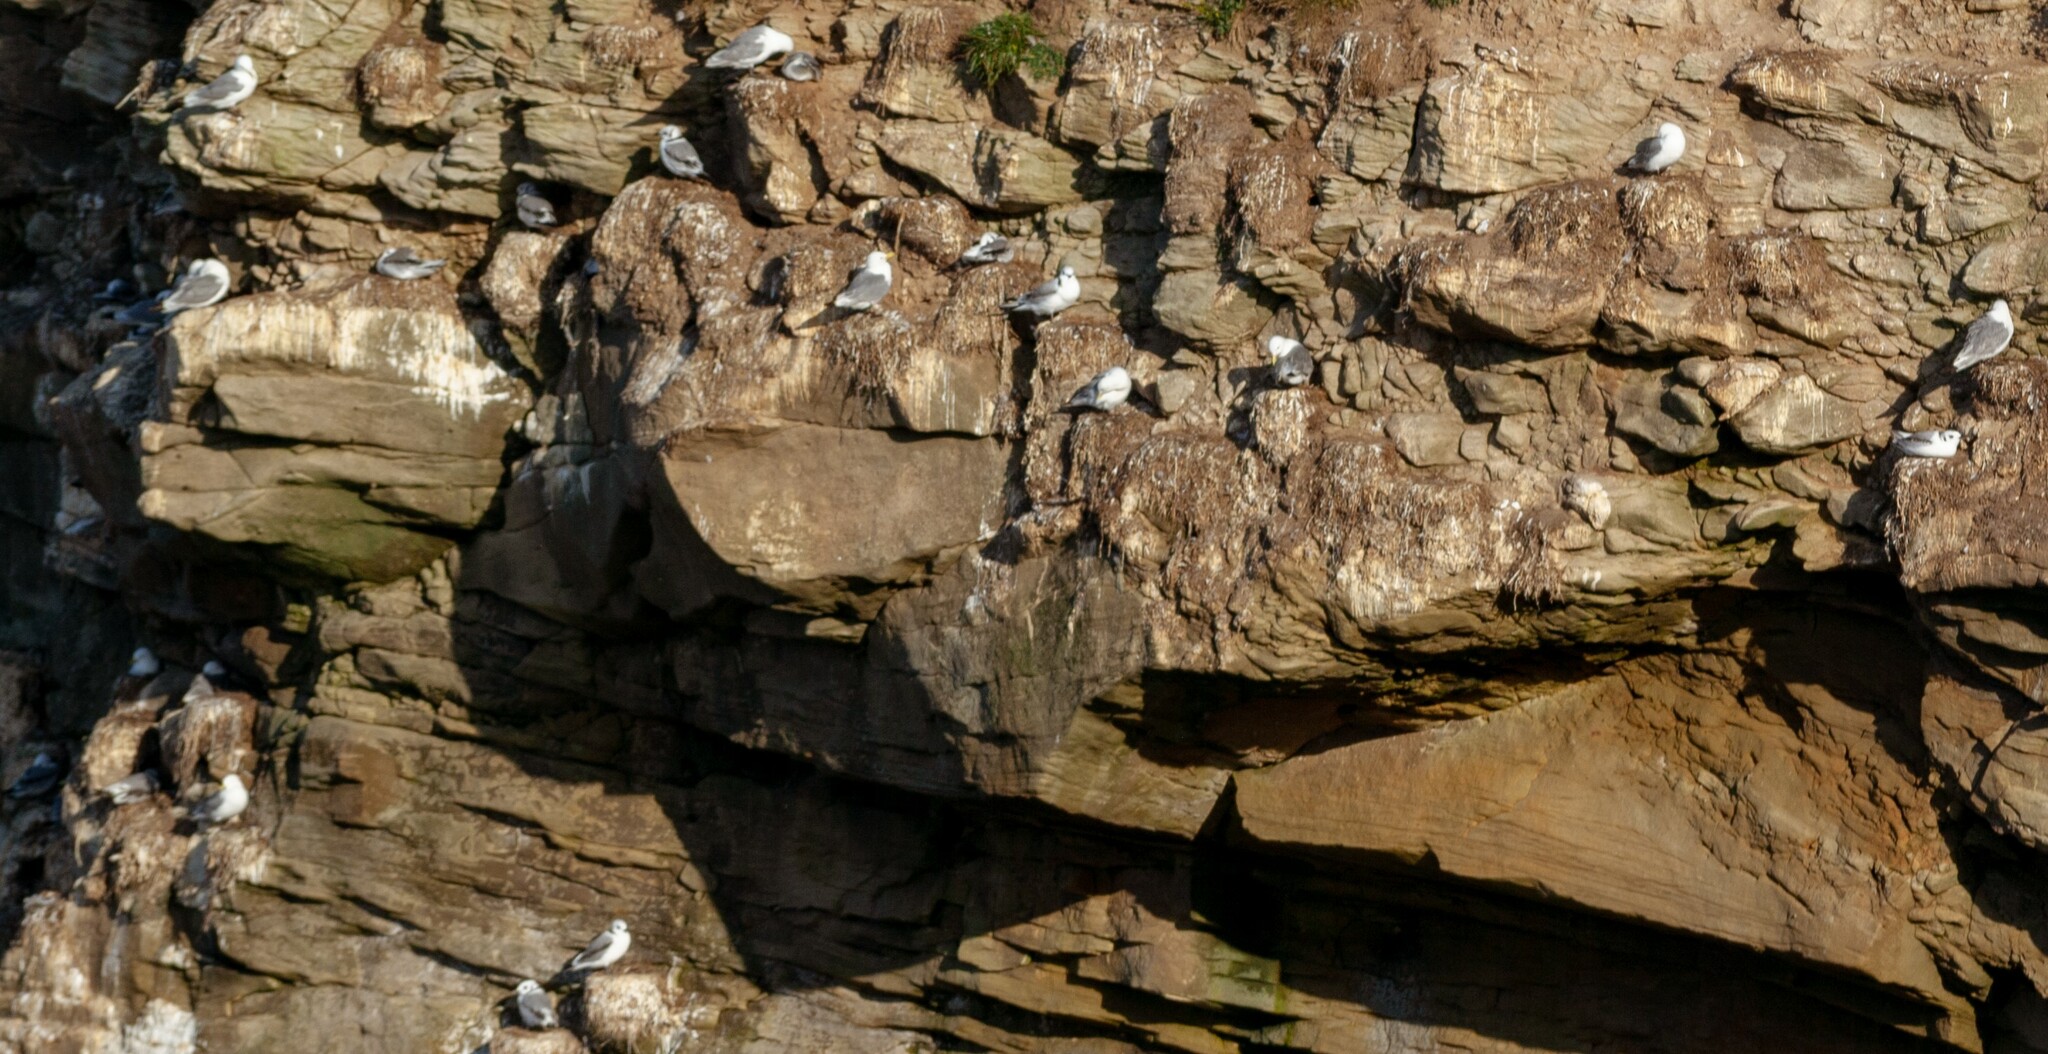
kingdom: Animalia
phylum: Chordata
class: Aves
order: Charadriiformes
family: Laridae
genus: Rissa
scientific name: Rissa tridactyla
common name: Black-legged kittiwake
